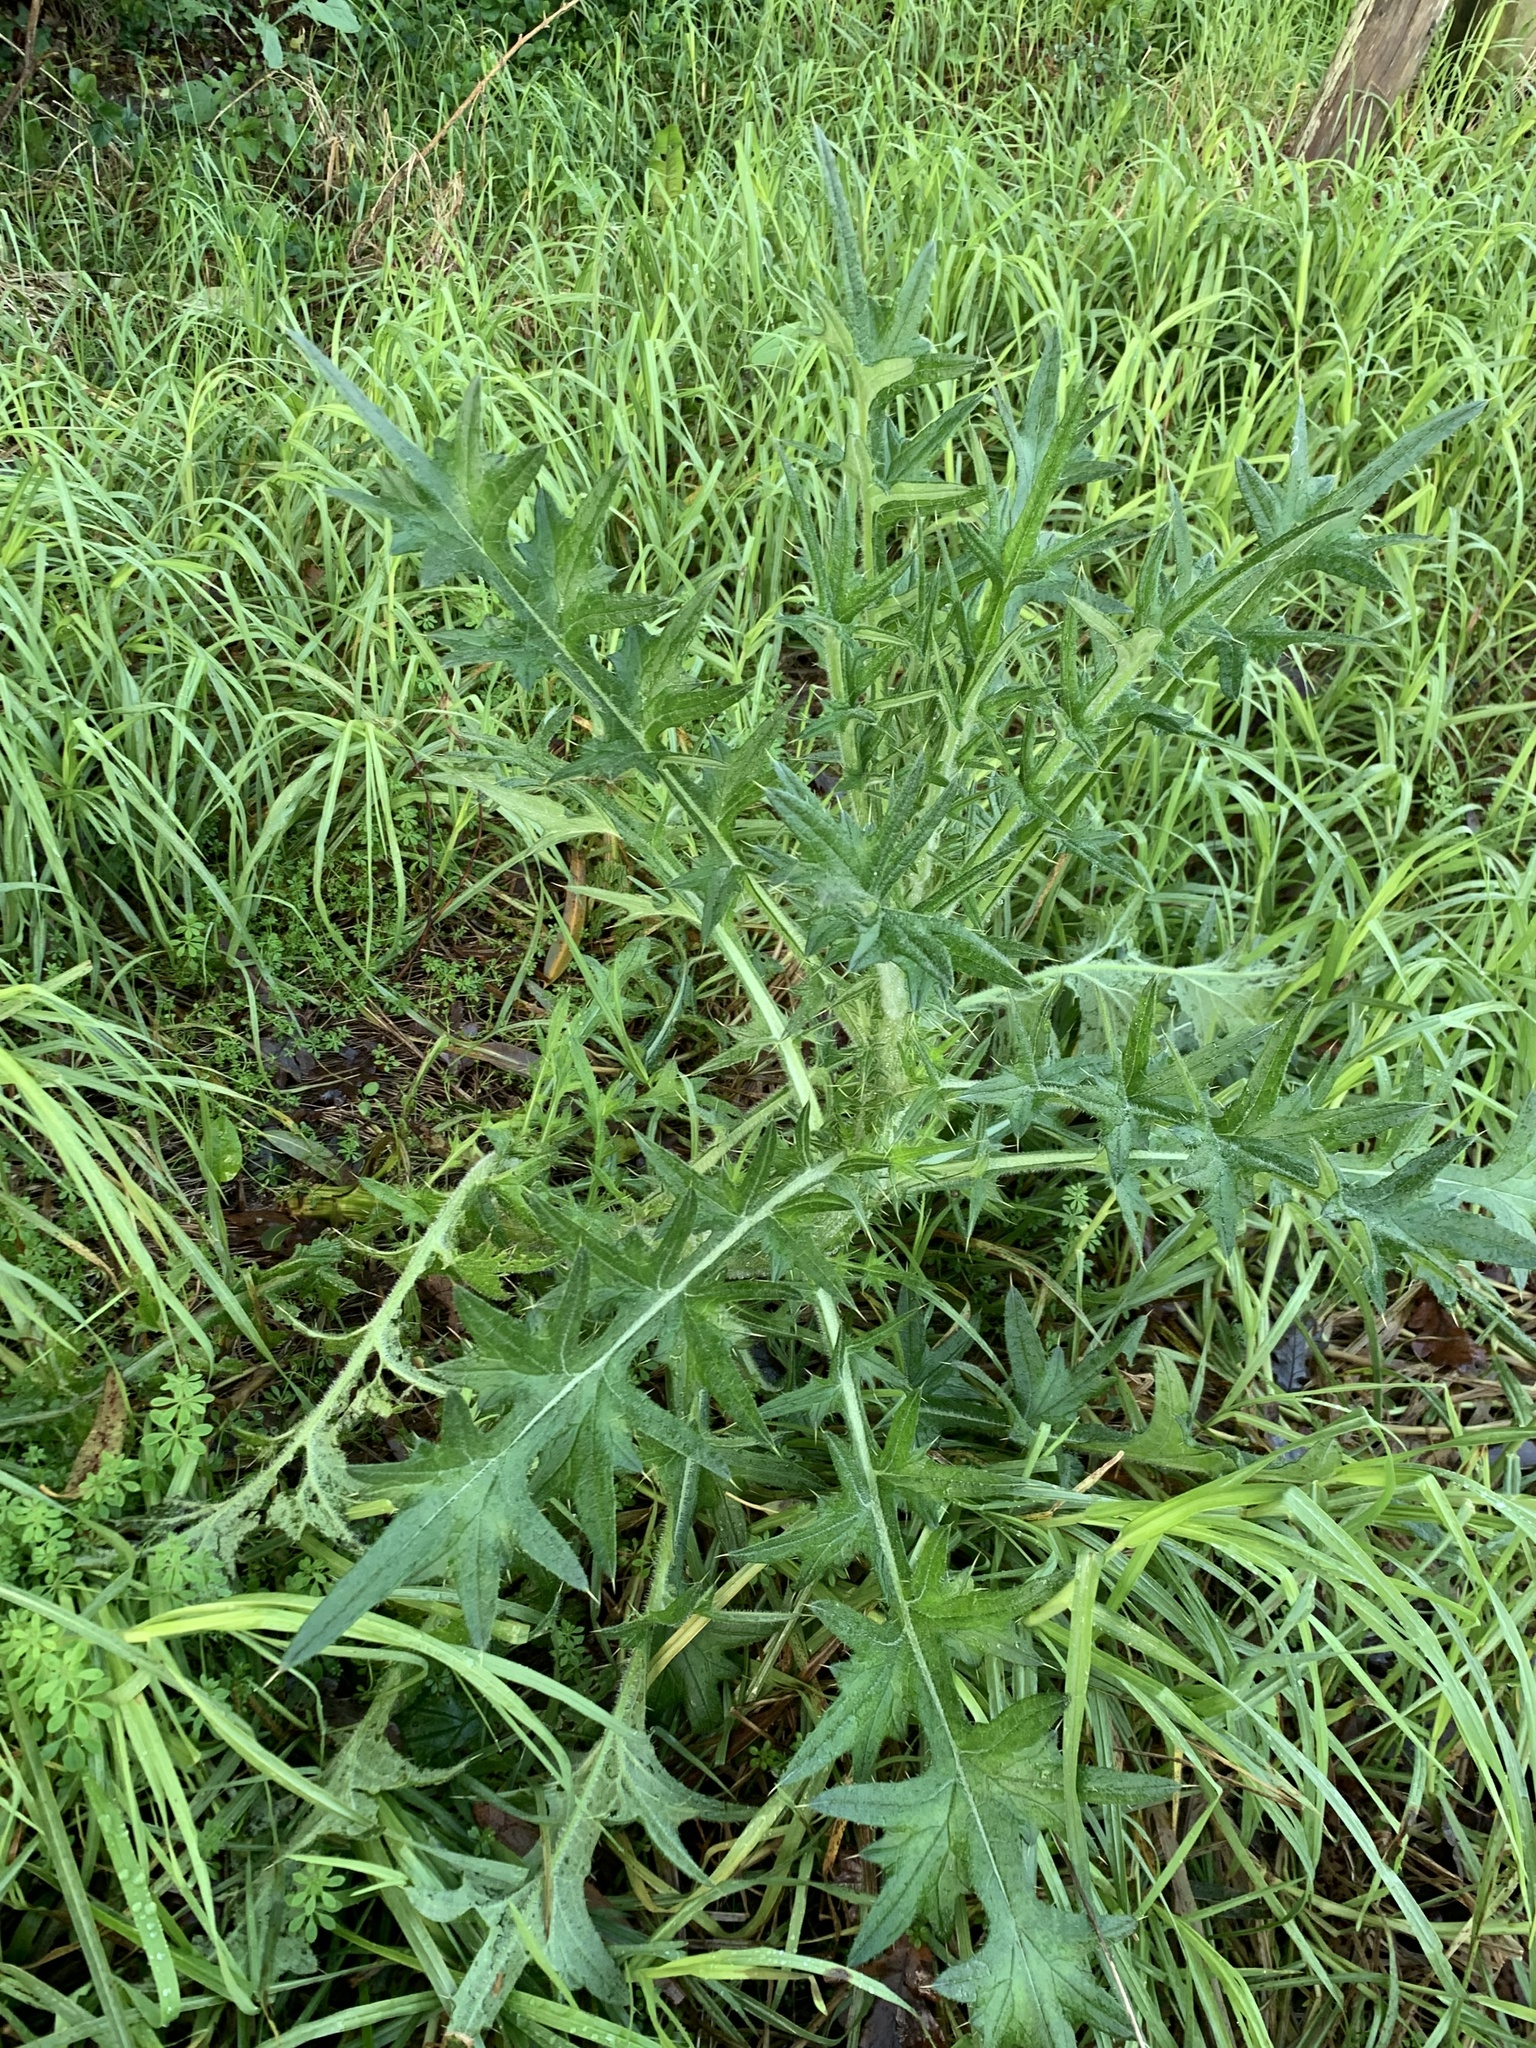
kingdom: Plantae
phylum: Tracheophyta
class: Magnoliopsida
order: Asterales
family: Asteraceae
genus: Cirsium
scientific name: Cirsium vulgare
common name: Bull thistle
